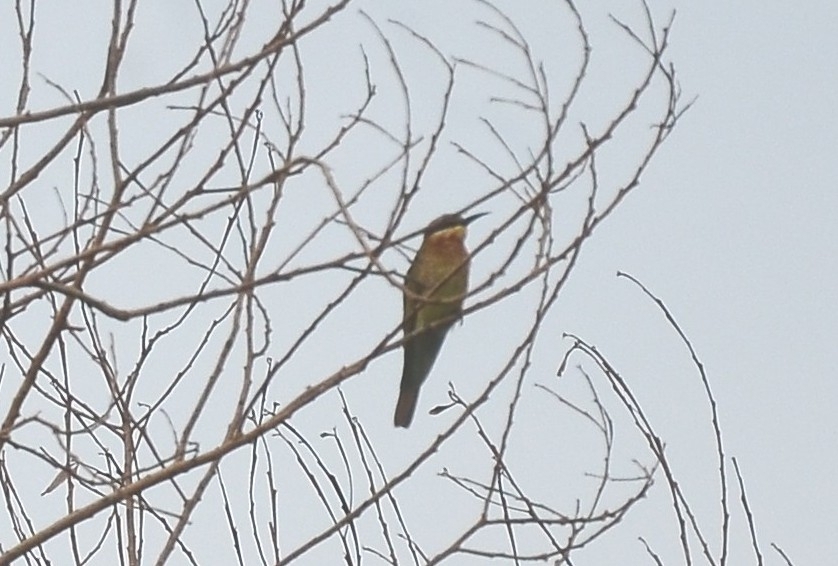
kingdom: Animalia
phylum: Chordata
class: Aves
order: Coraciiformes
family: Meropidae
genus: Merops
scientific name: Merops philippinus
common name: Blue-tailed bee-eater
